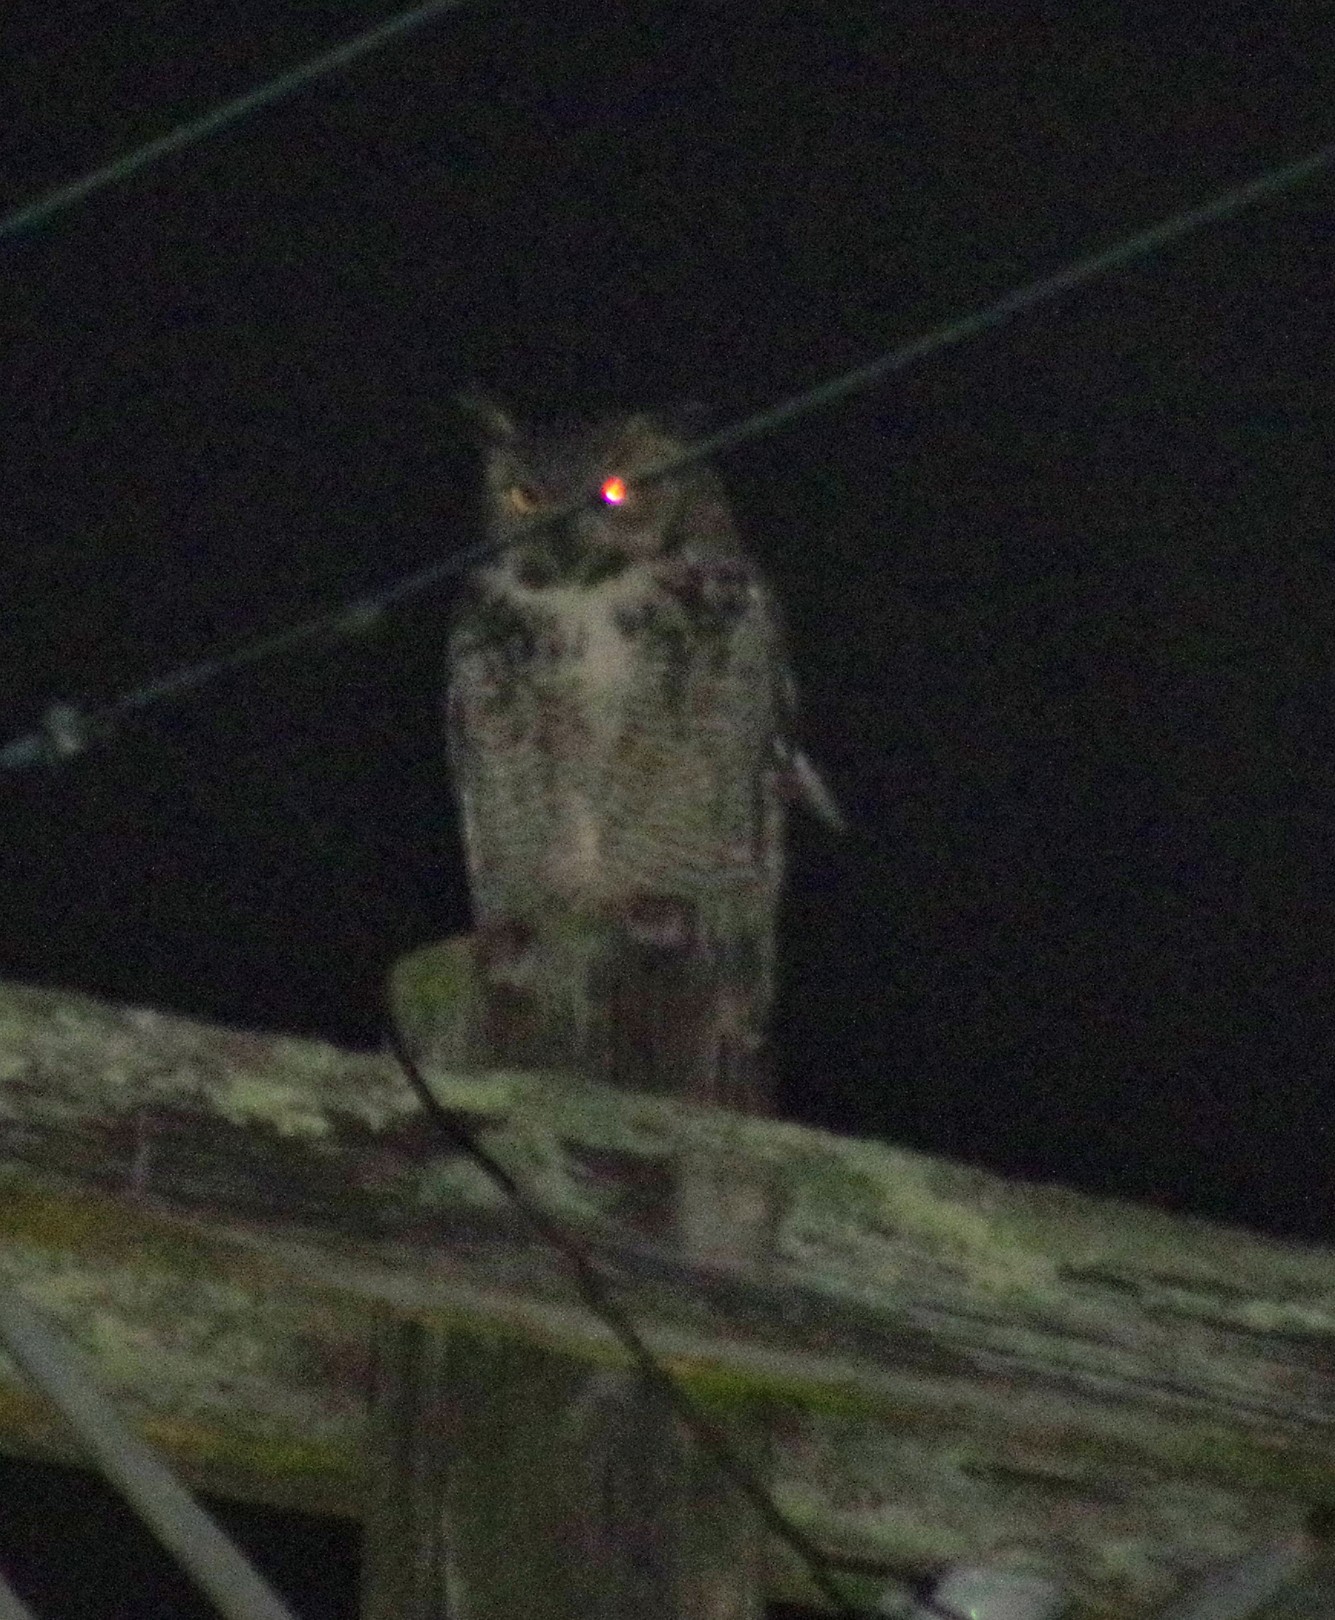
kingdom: Animalia
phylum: Chordata
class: Aves
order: Strigiformes
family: Strigidae
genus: Bubo
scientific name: Bubo virginianus
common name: Great horned owl
